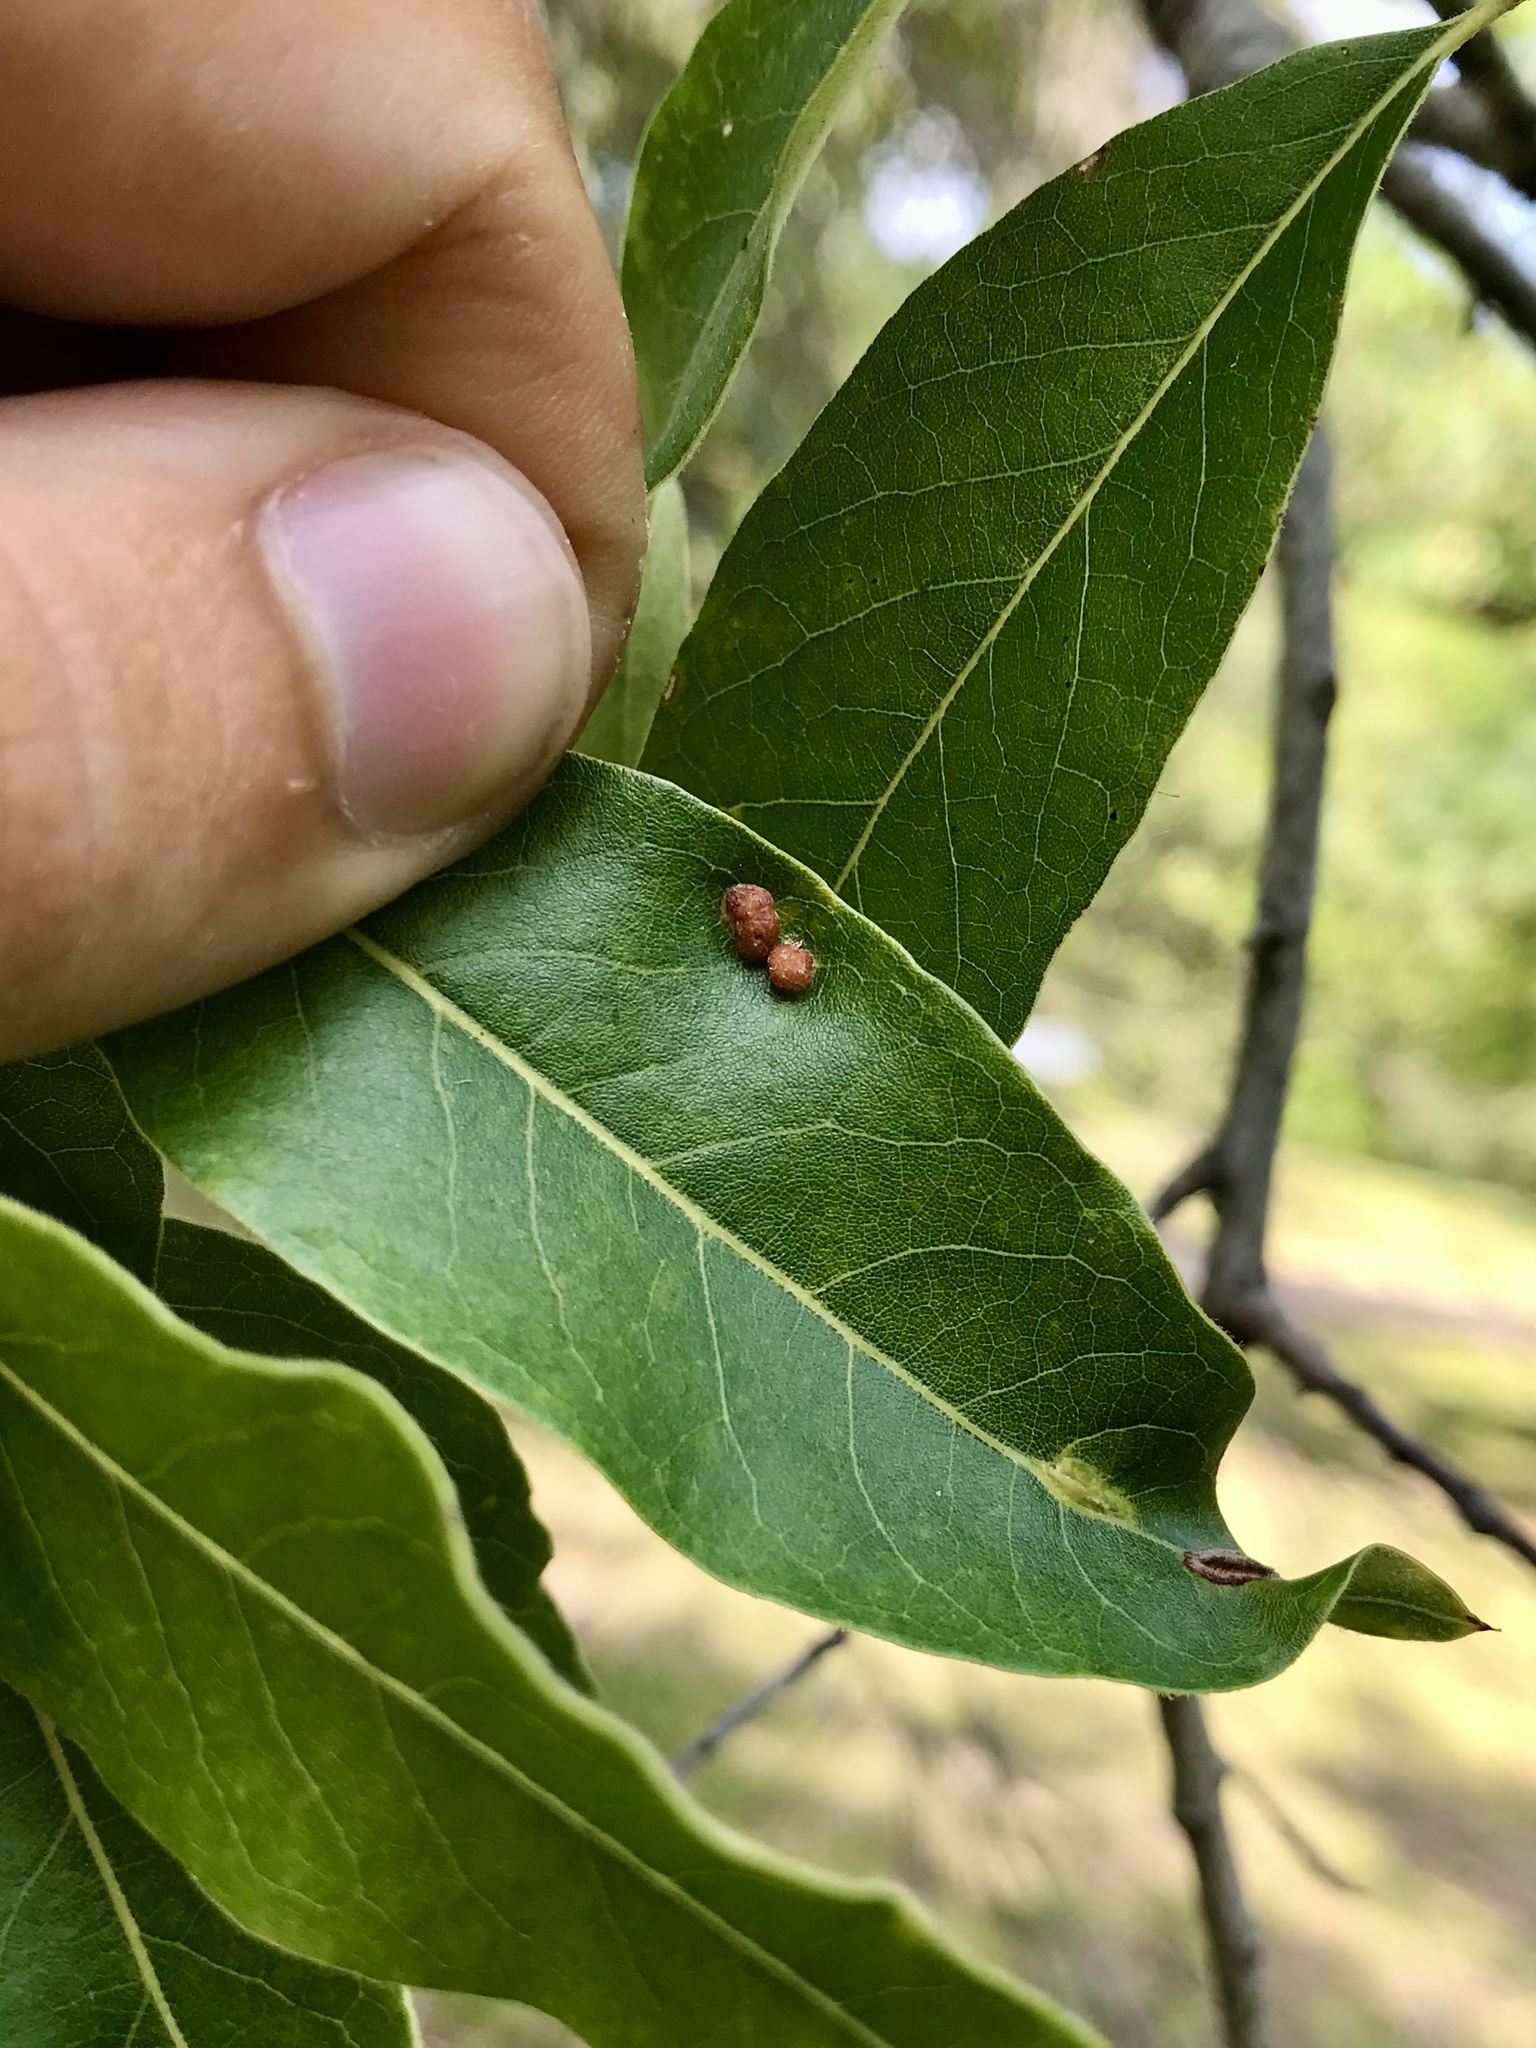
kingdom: Animalia
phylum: Arthropoda
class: Insecta
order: Diptera
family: Cecidomyiidae
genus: Polystepha
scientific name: Polystepha pilulae
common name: Oak leaf gall midge
